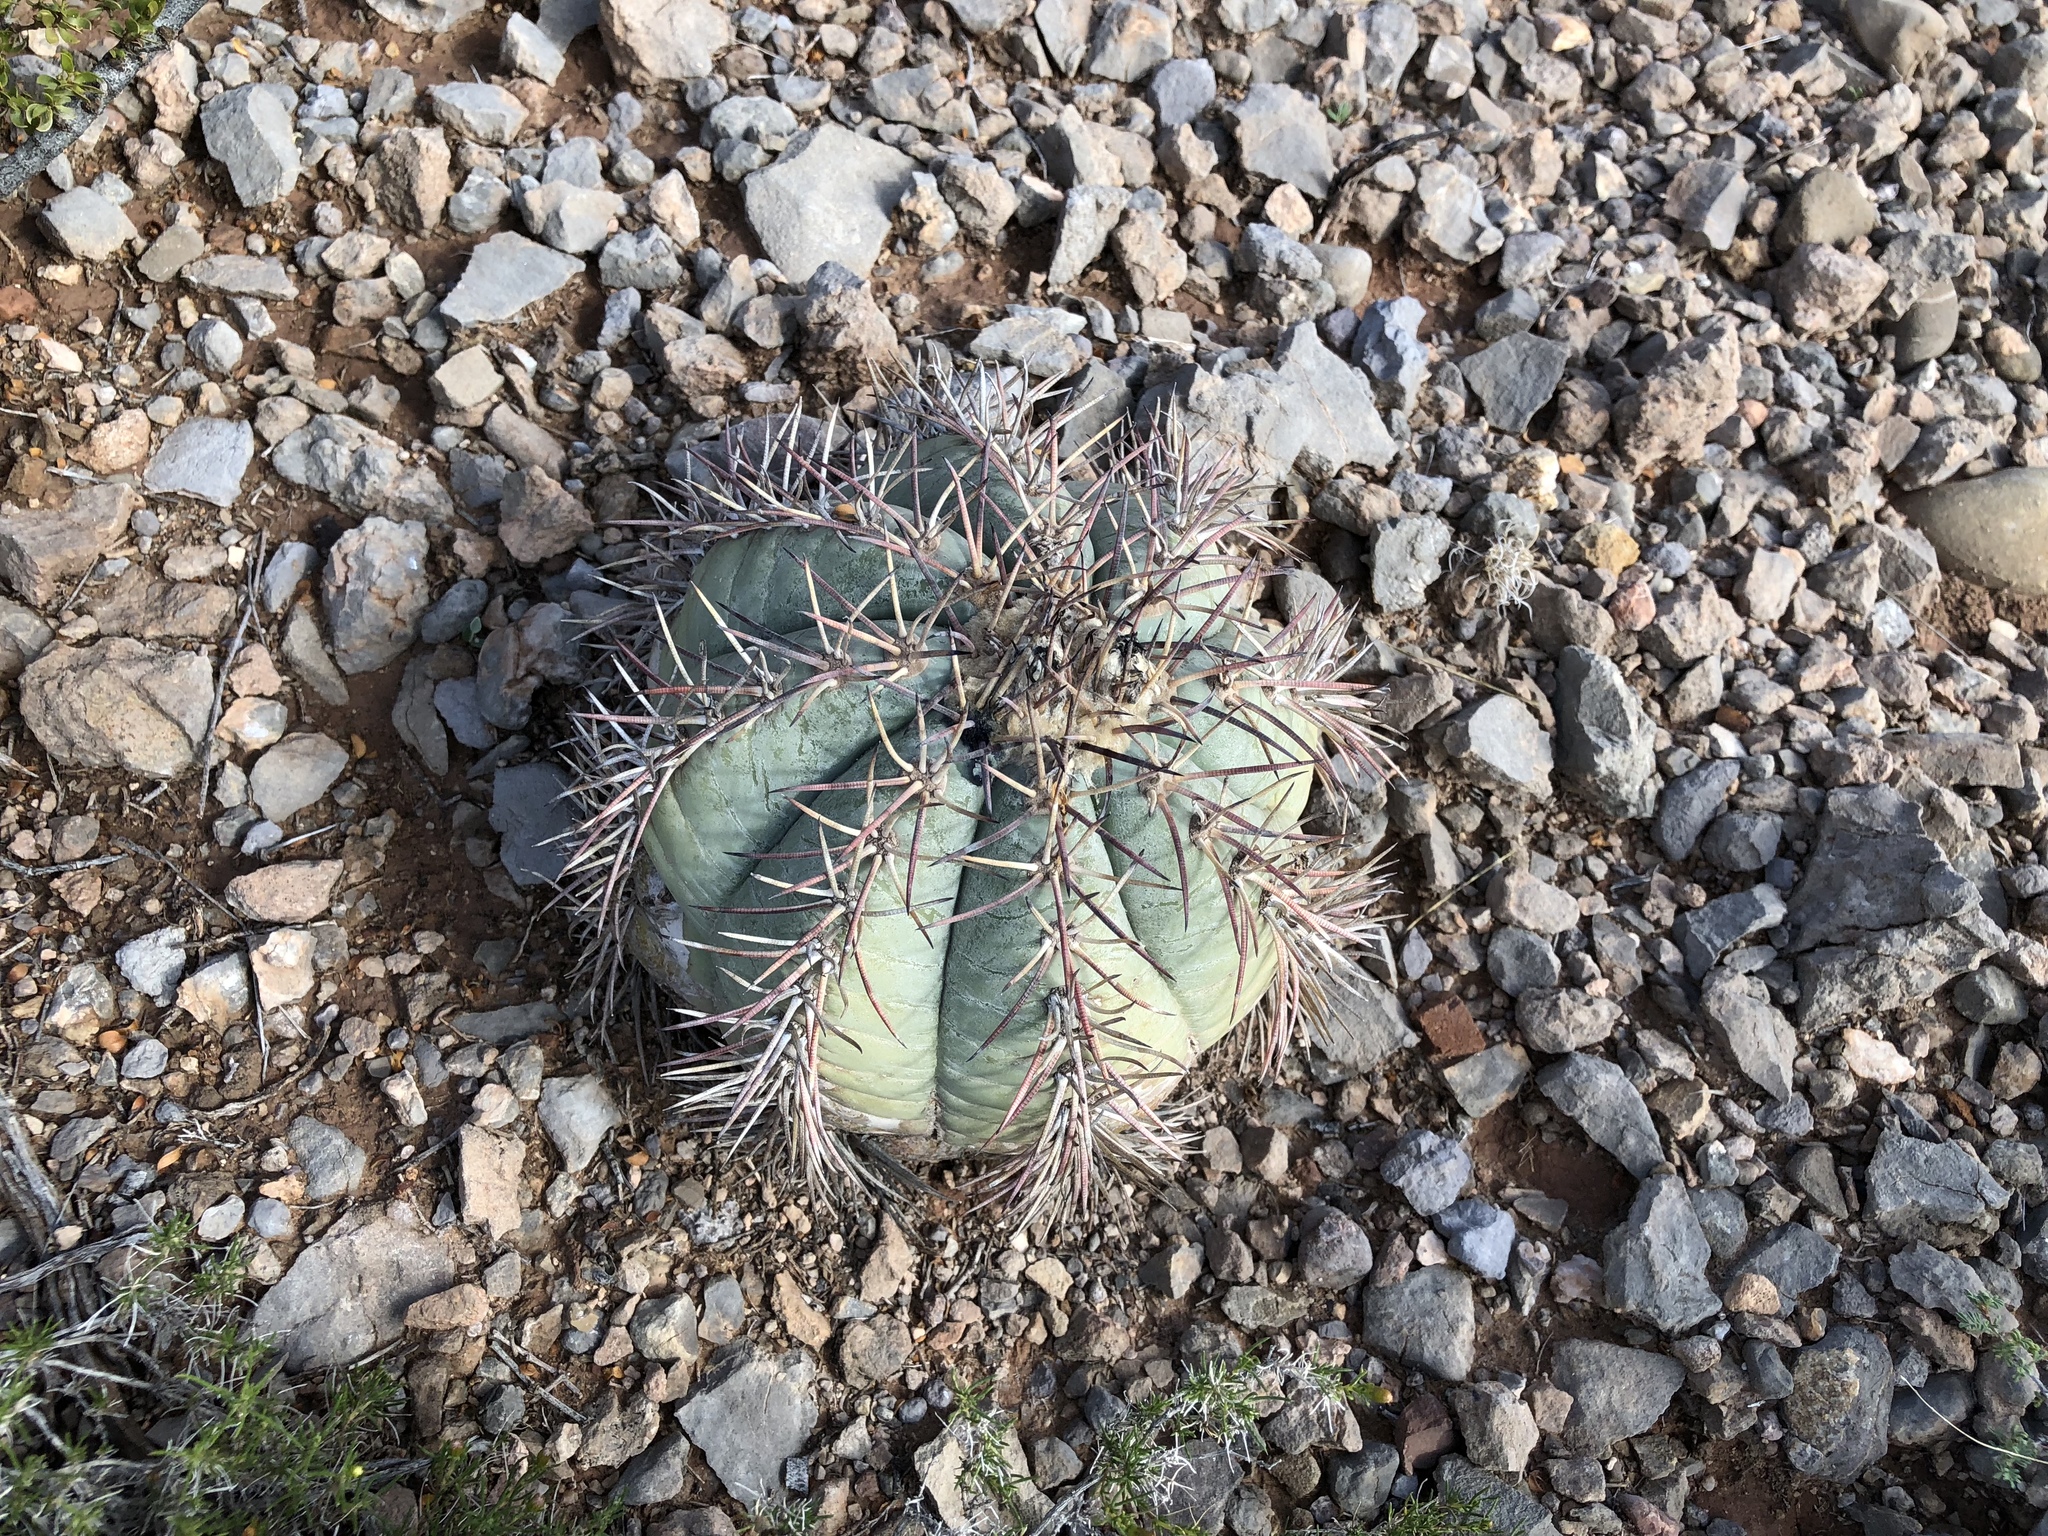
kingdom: Plantae
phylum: Tracheophyta
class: Magnoliopsida
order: Caryophyllales
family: Cactaceae
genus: Echinocactus
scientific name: Echinocactus horizonthalonius
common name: Devilshead
